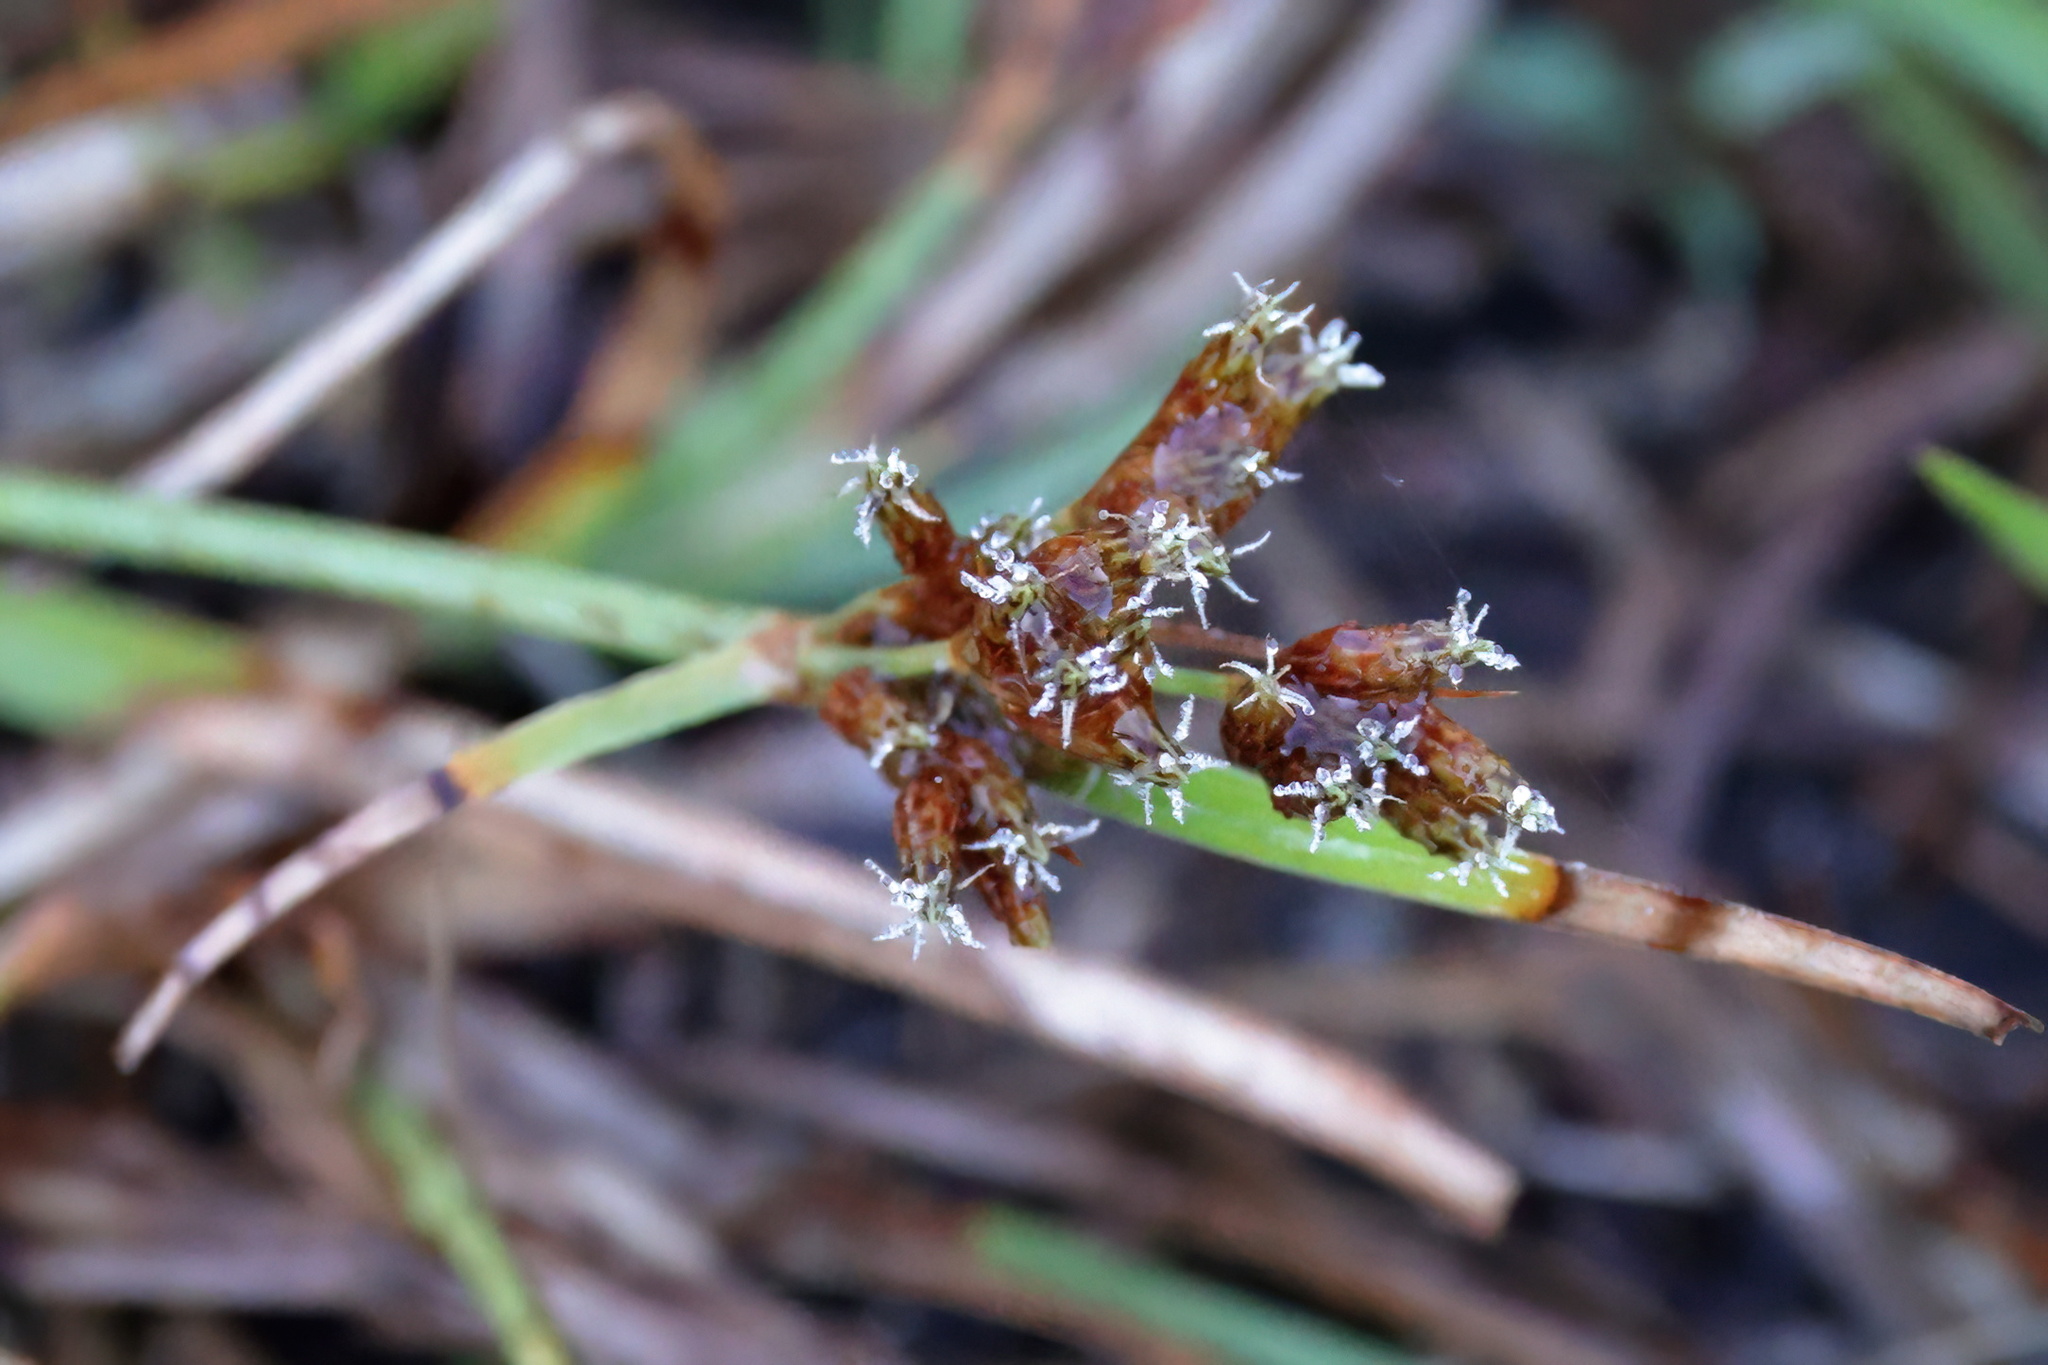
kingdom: Plantae
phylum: Tracheophyta
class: Liliopsida
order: Poales
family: Cyperaceae
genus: Fimbristylis
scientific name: Fimbristylis dichotoma
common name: Forked fimbry
